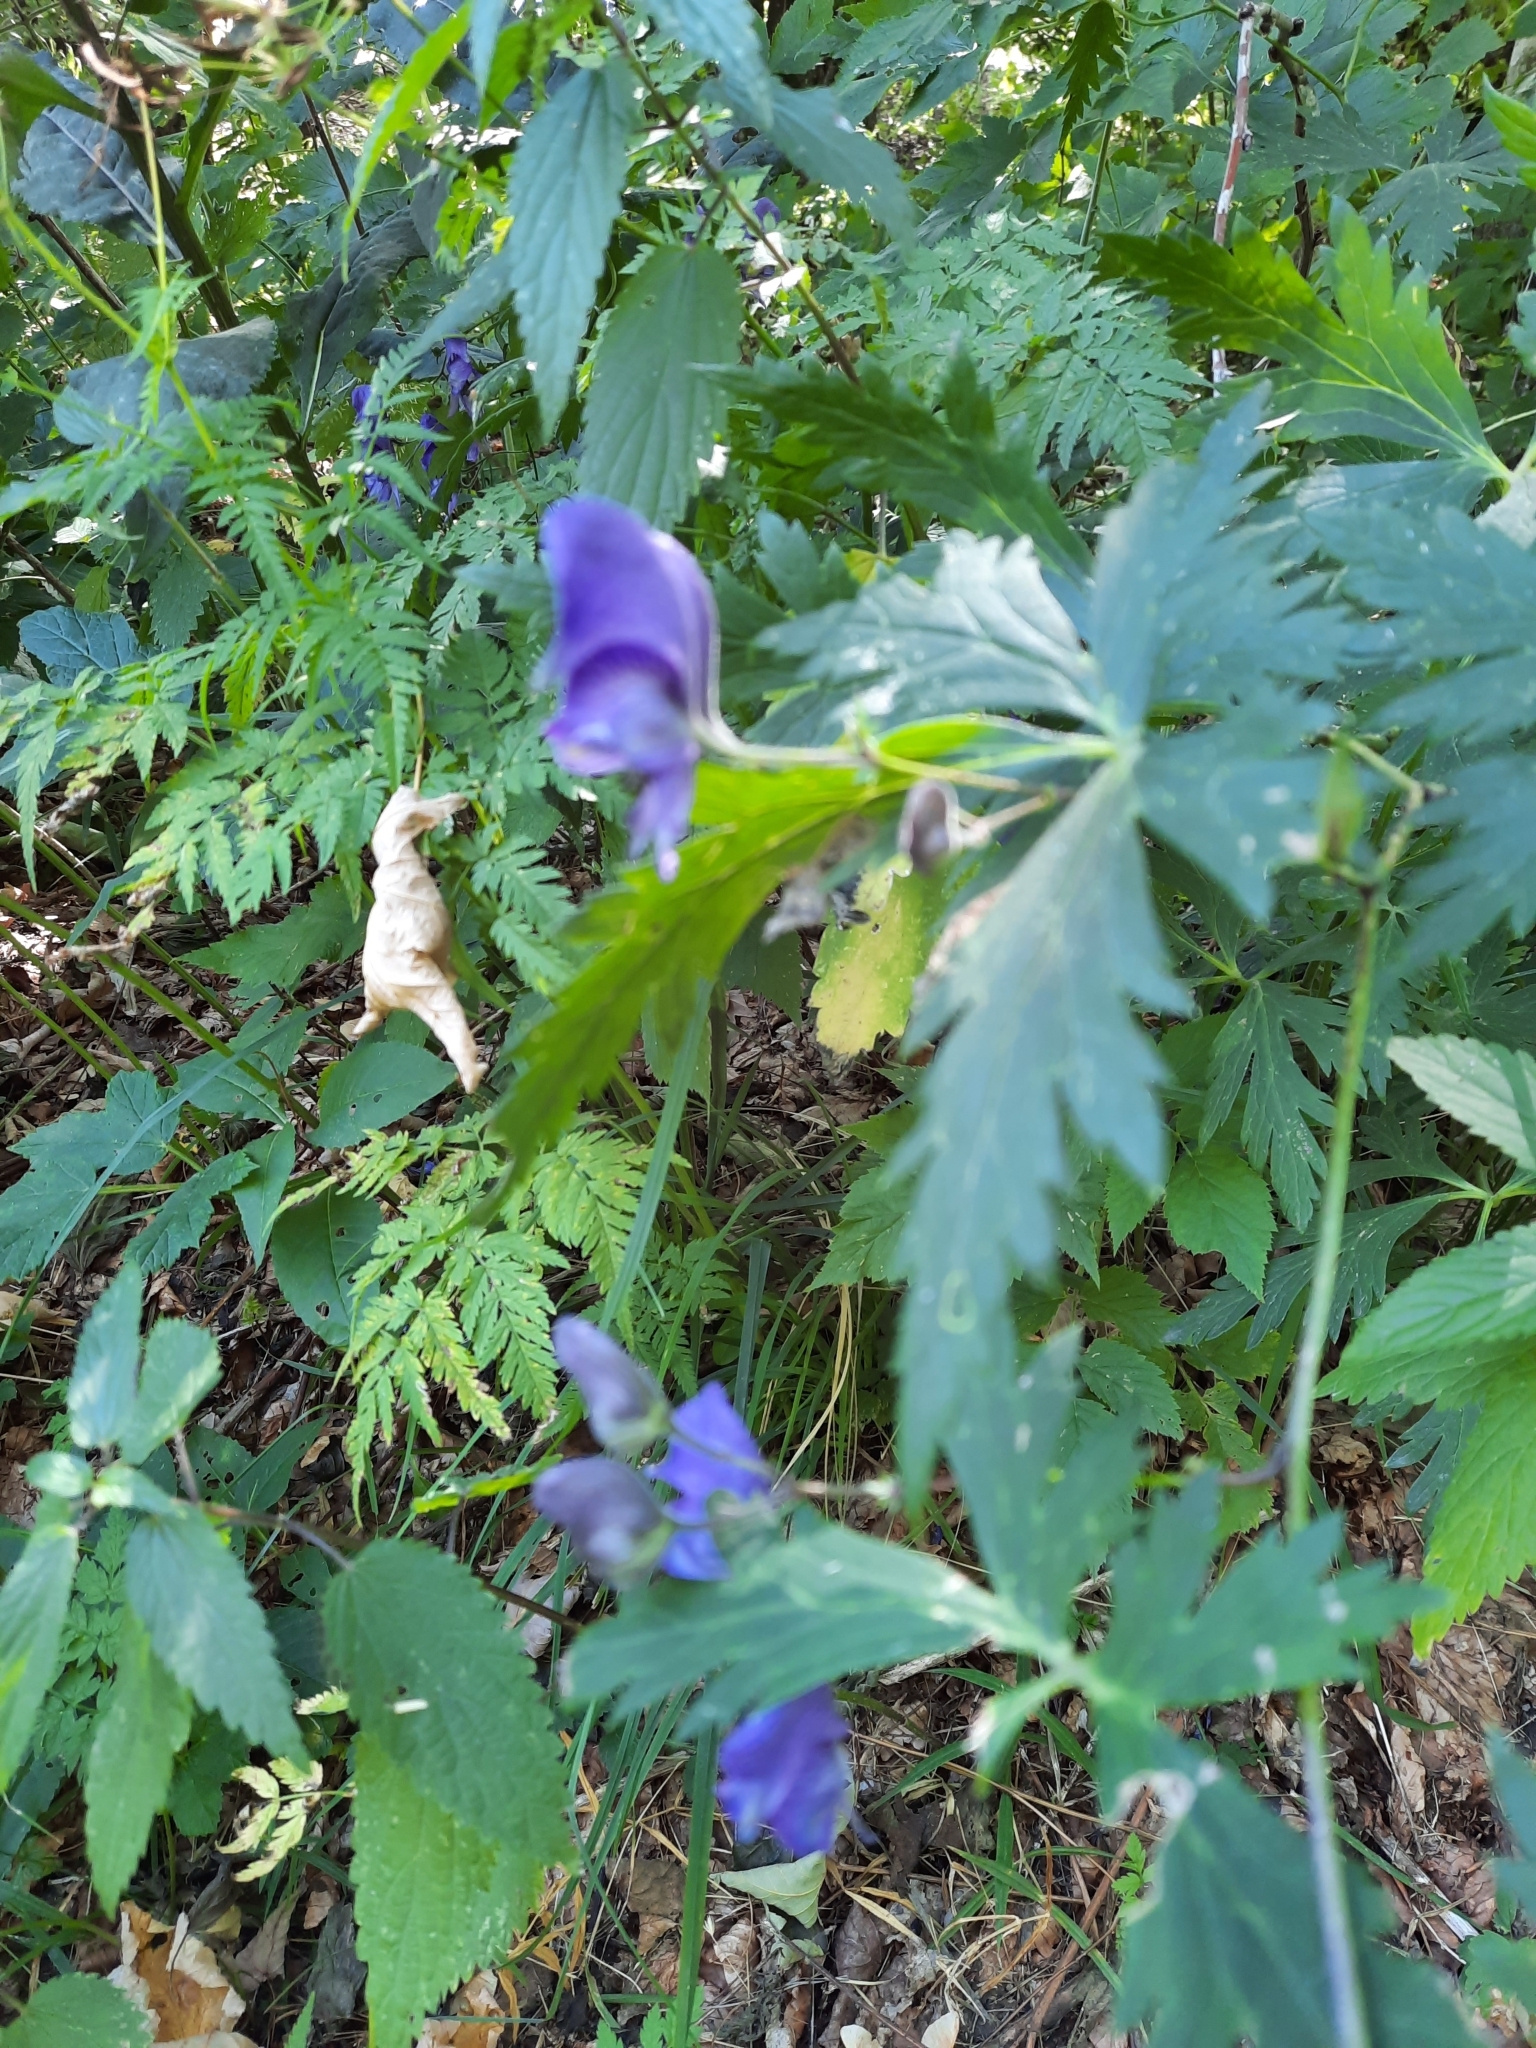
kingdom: Plantae
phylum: Tracheophyta
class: Magnoliopsida
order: Ranunculales
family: Ranunculaceae
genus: Aconitum
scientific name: Aconitum degenii
